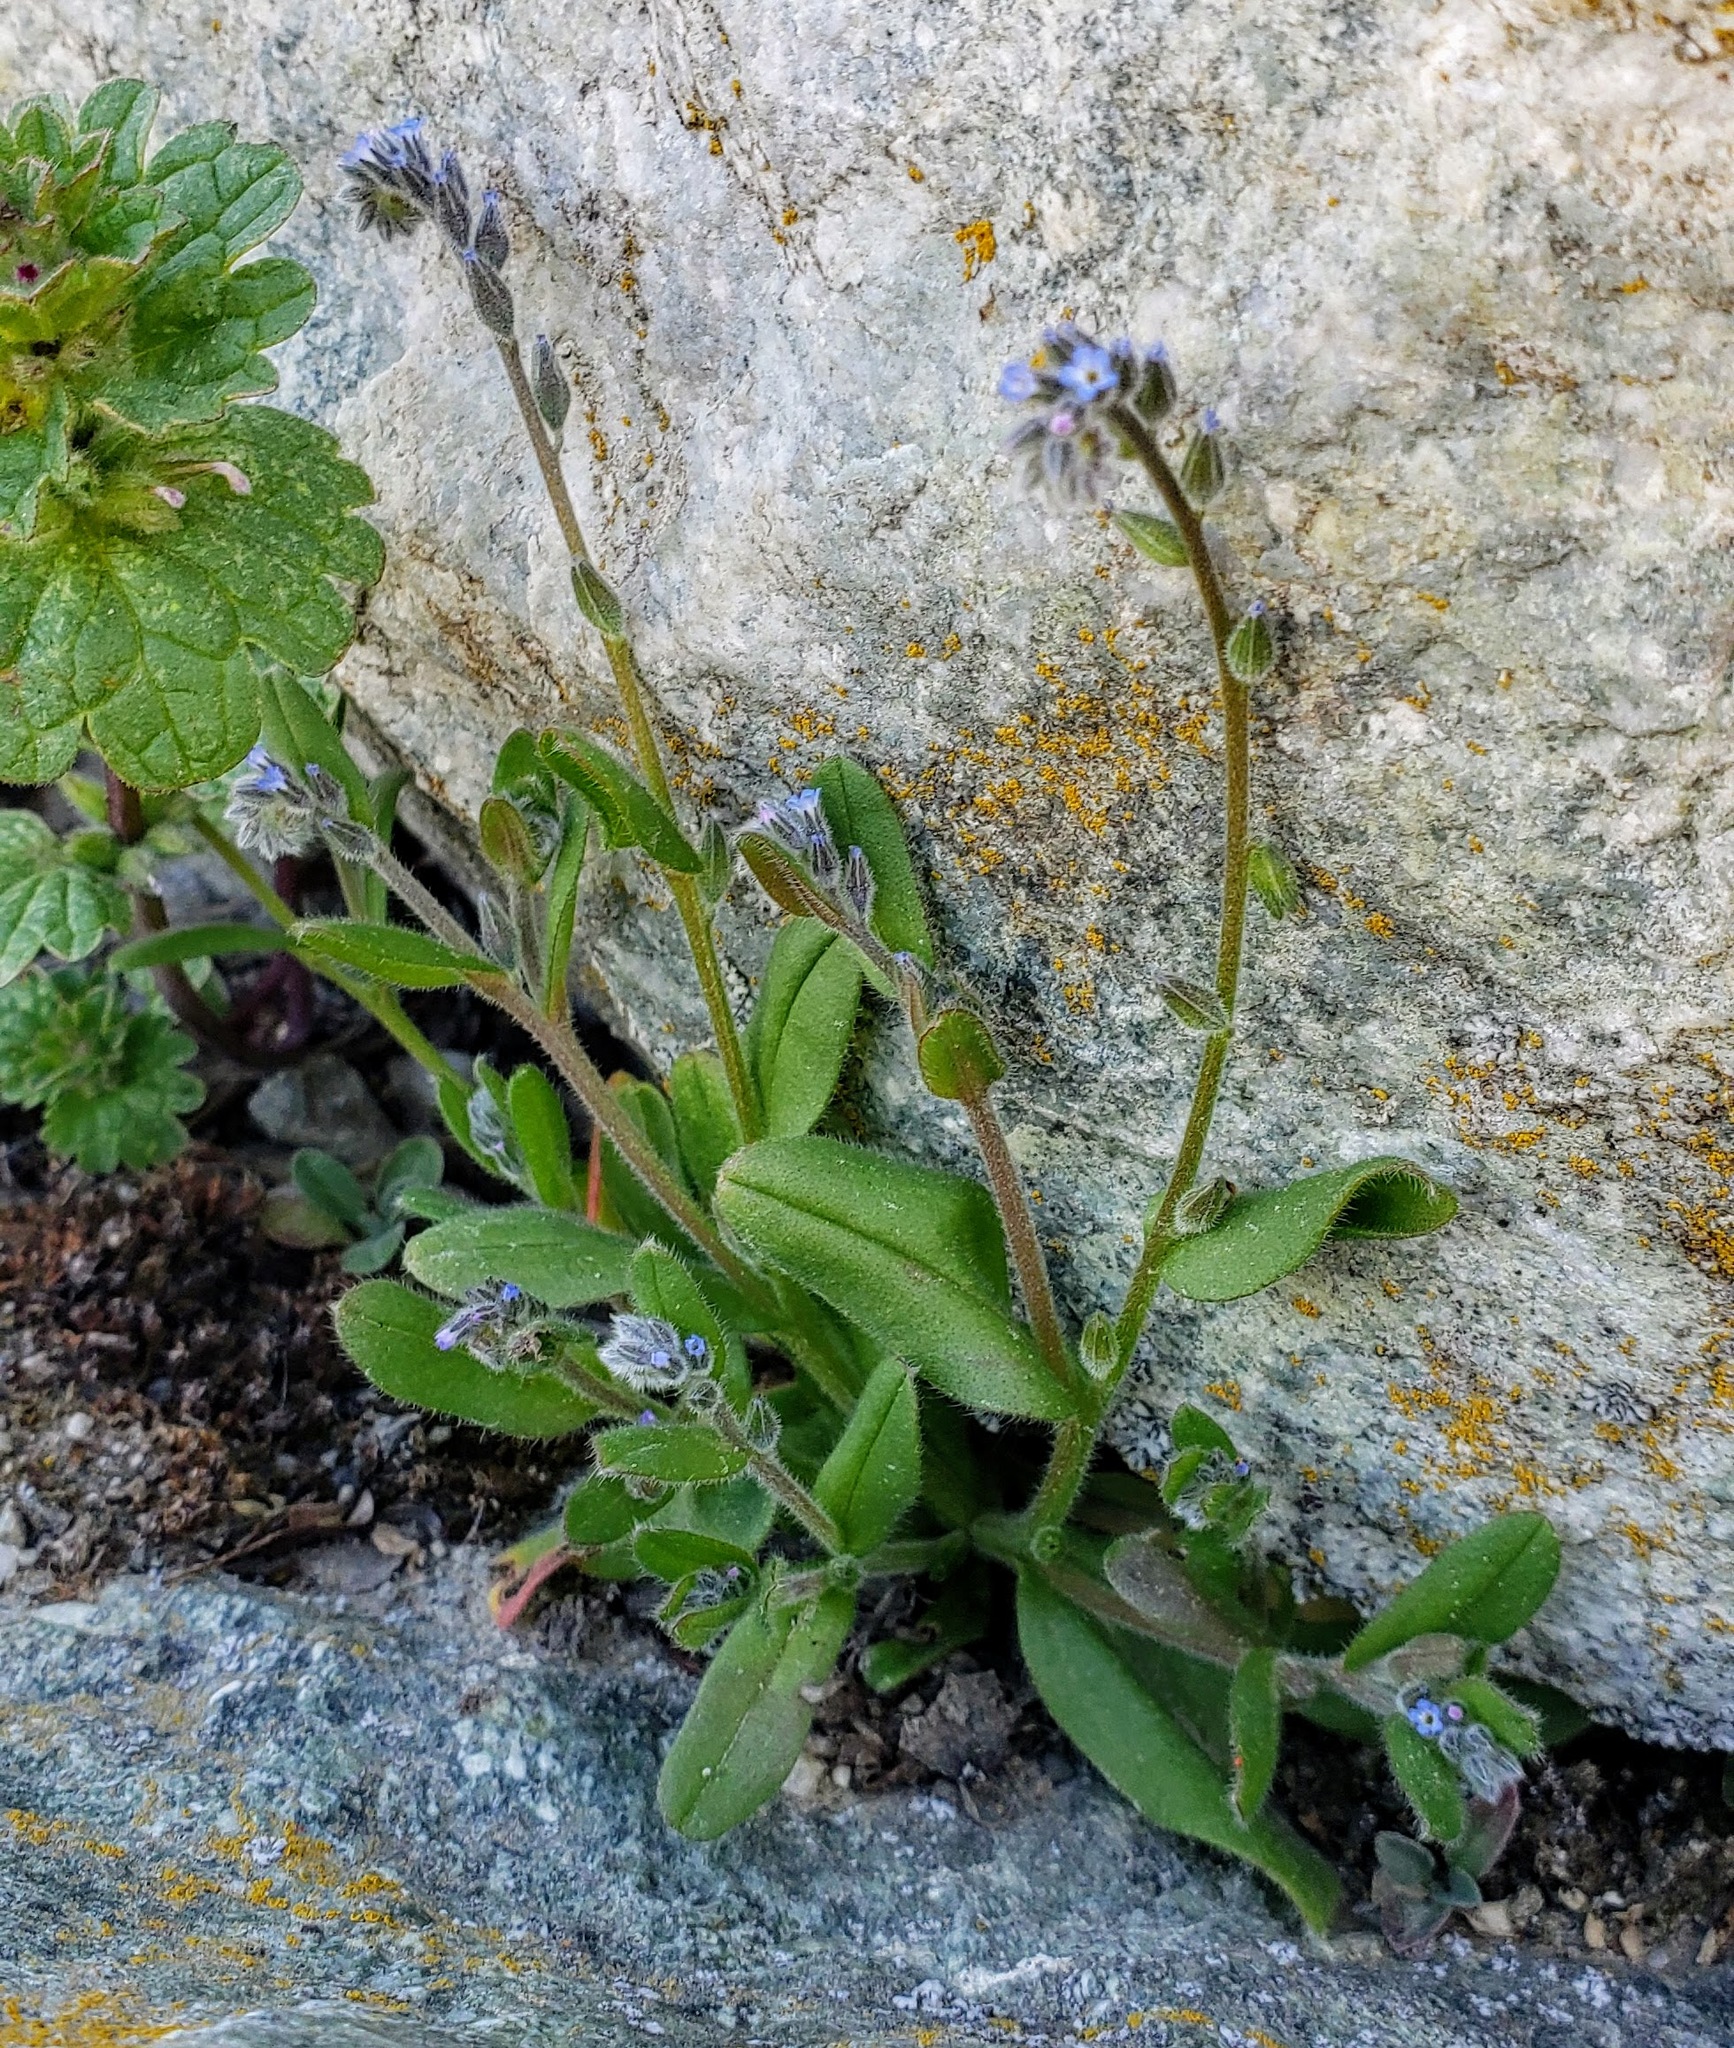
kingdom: Plantae
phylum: Tracheophyta
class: Magnoliopsida
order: Boraginales
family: Boraginaceae
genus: Myosotis
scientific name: Myosotis stricta
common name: Strict forget-me-not
